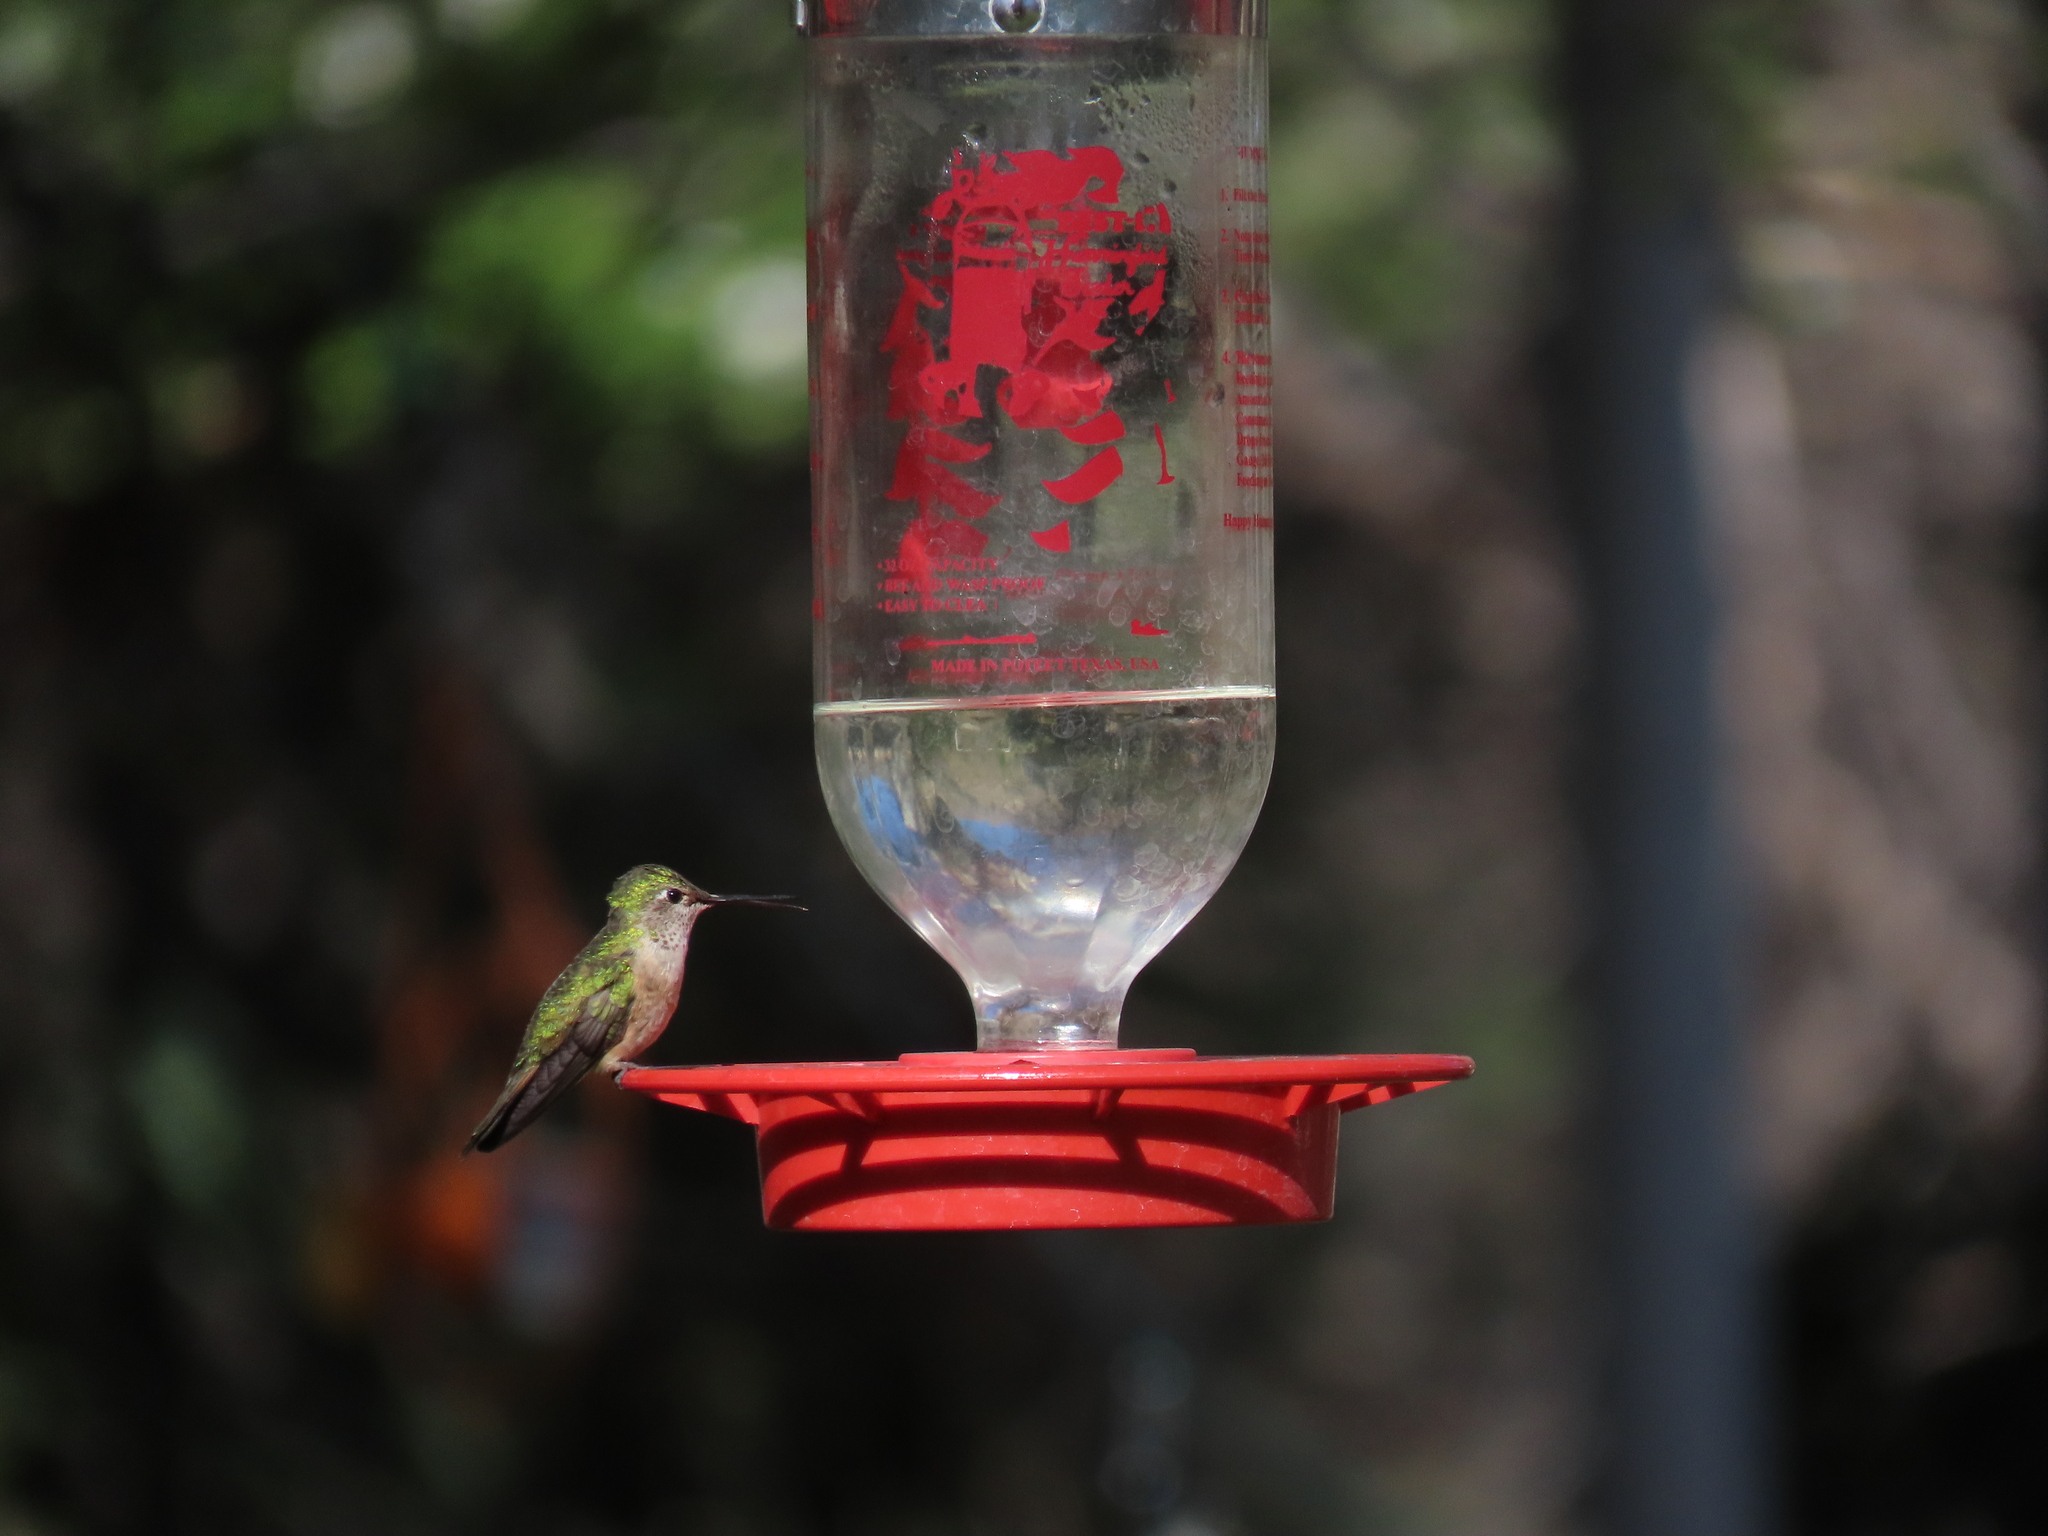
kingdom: Animalia
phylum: Chordata
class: Aves
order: Apodiformes
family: Trochilidae
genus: Selasphorus
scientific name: Selasphorus platycercus
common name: Broad-tailed hummingbird
